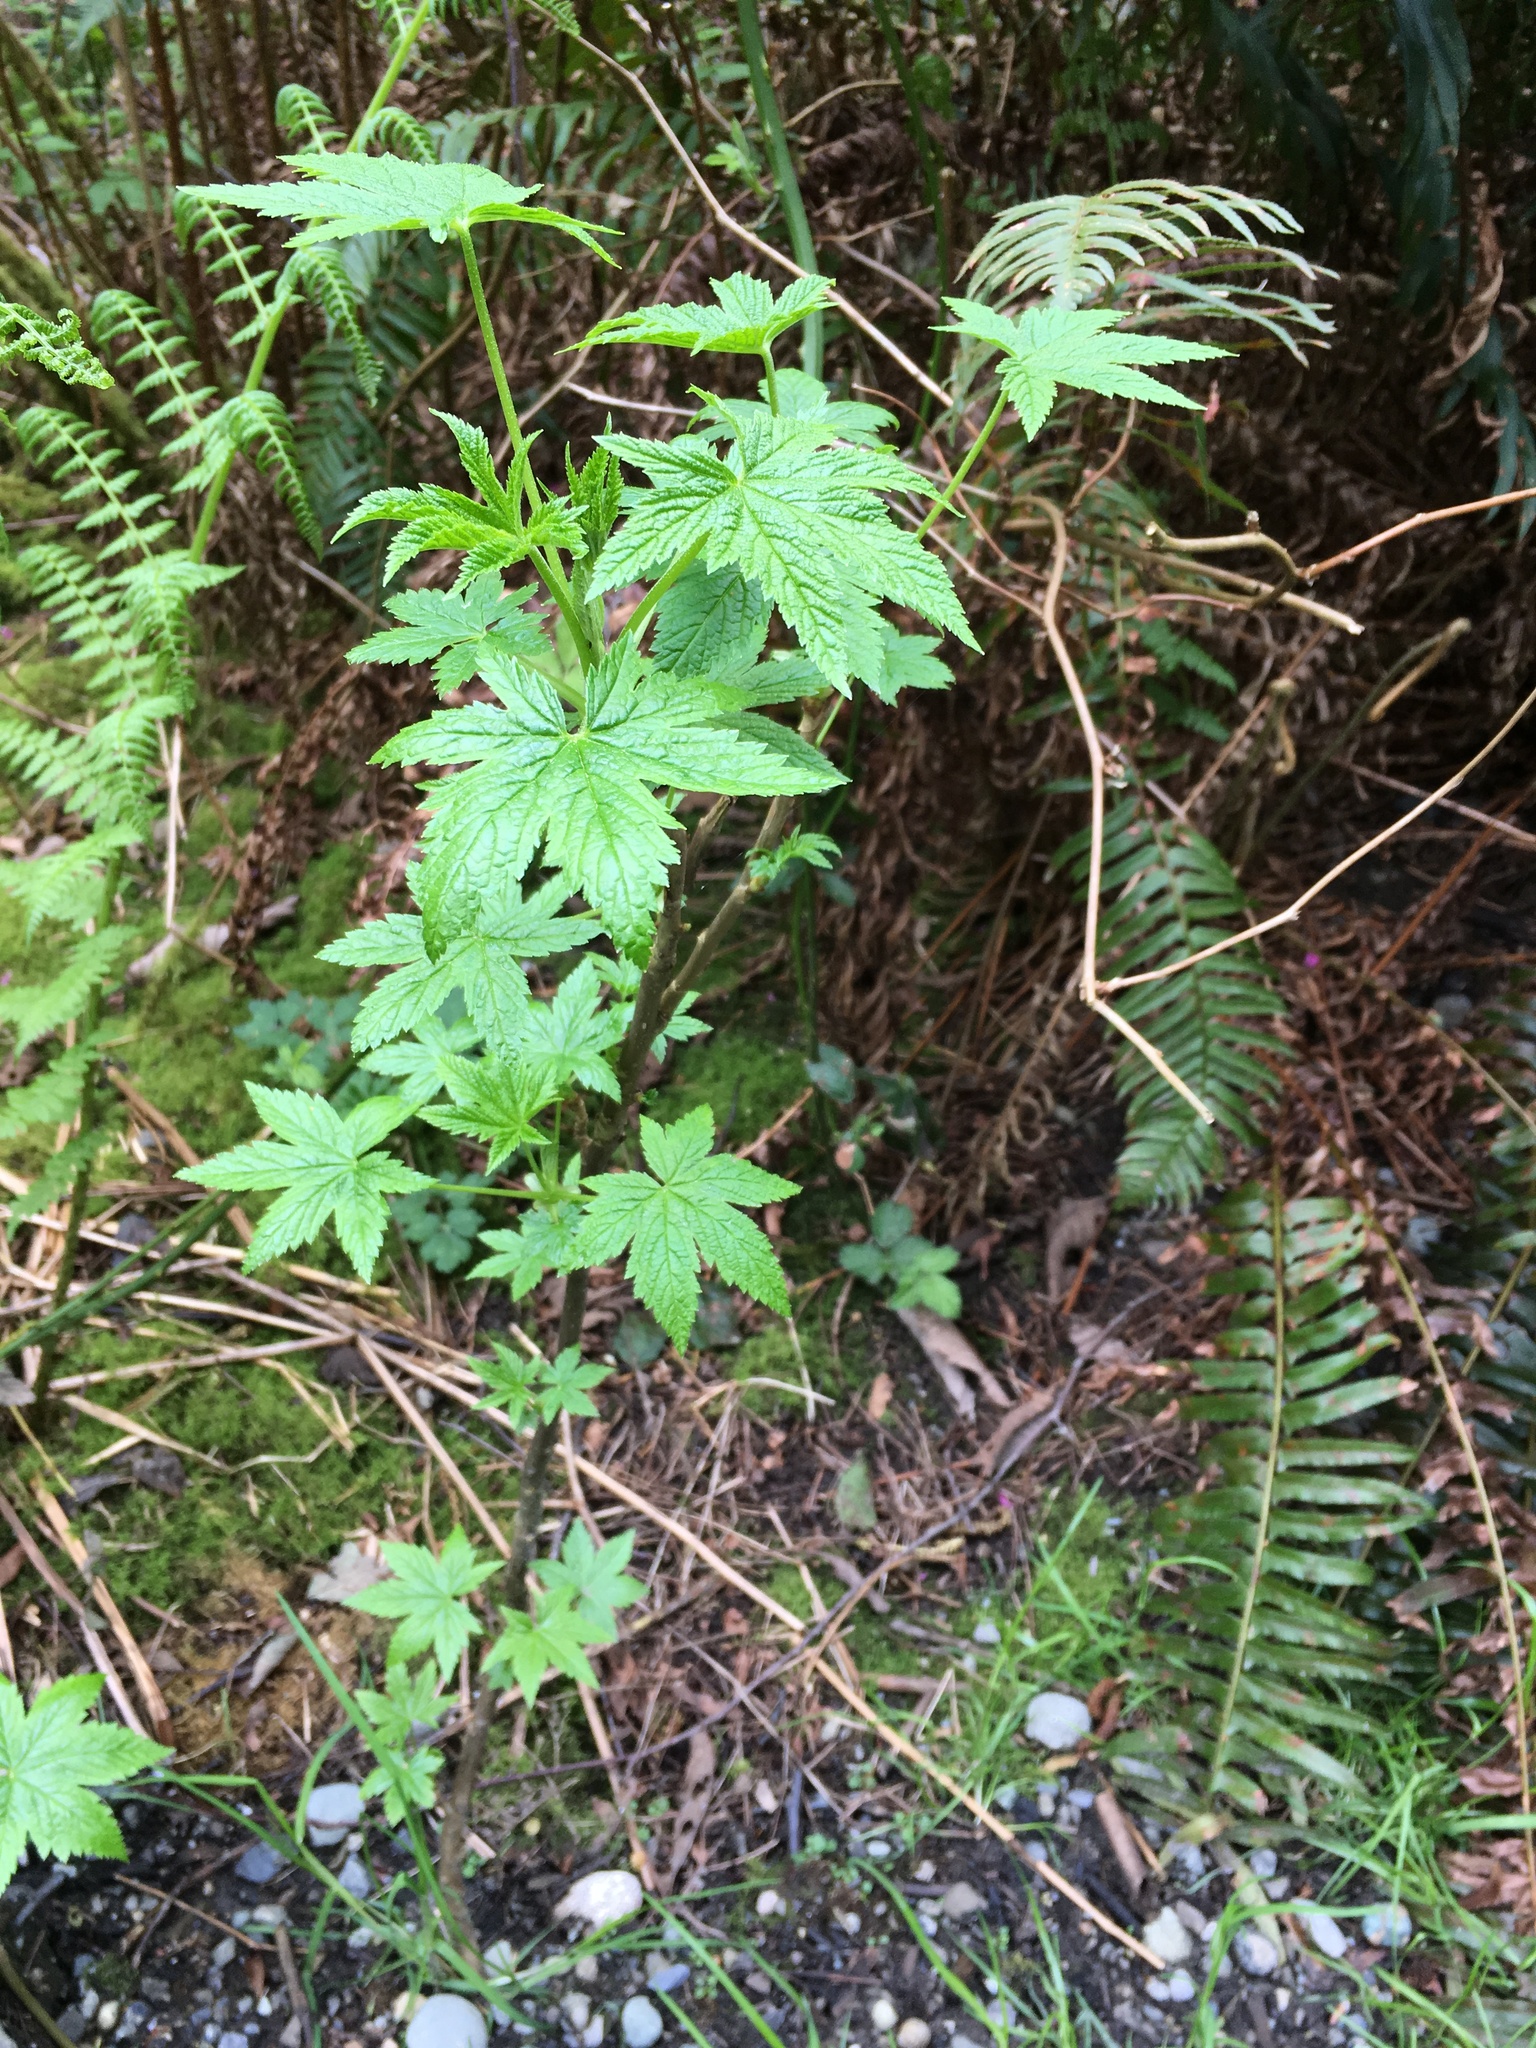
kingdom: Plantae
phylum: Tracheophyta
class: Magnoliopsida
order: Saxifragales
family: Grossulariaceae
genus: Ribes
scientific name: Ribes bracteosum
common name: California black currant
